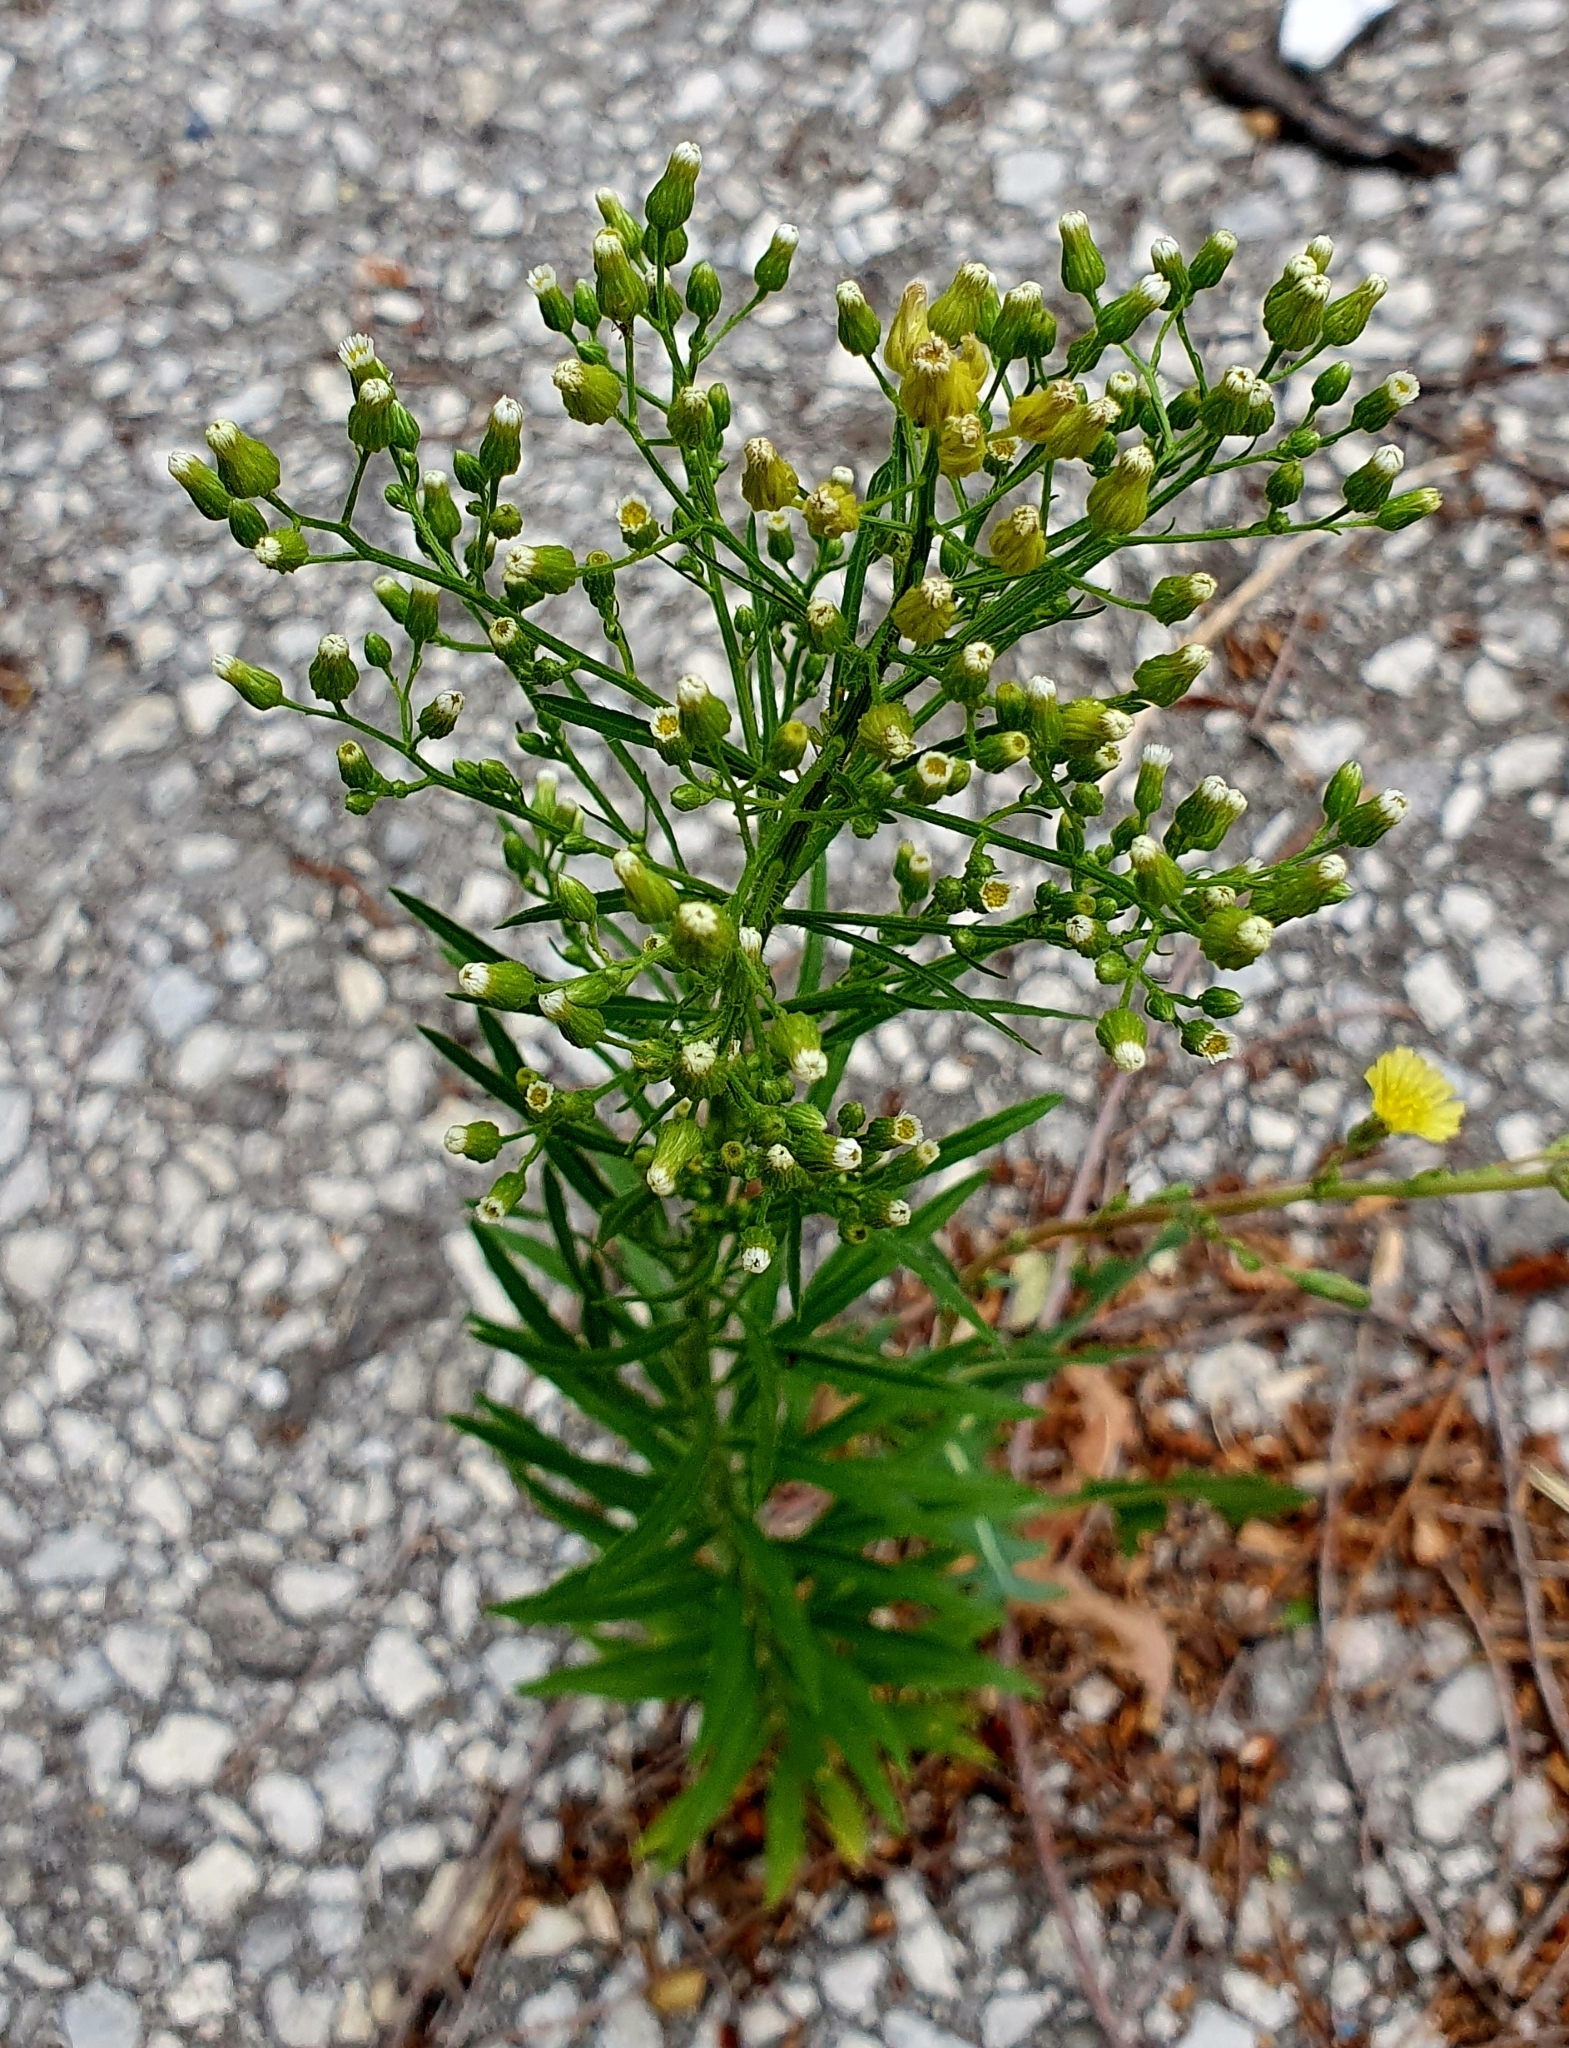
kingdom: Plantae
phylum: Tracheophyta
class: Magnoliopsida
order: Asterales
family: Asteraceae
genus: Erigeron
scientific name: Erigeron canadensis
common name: Canadian fleabane
